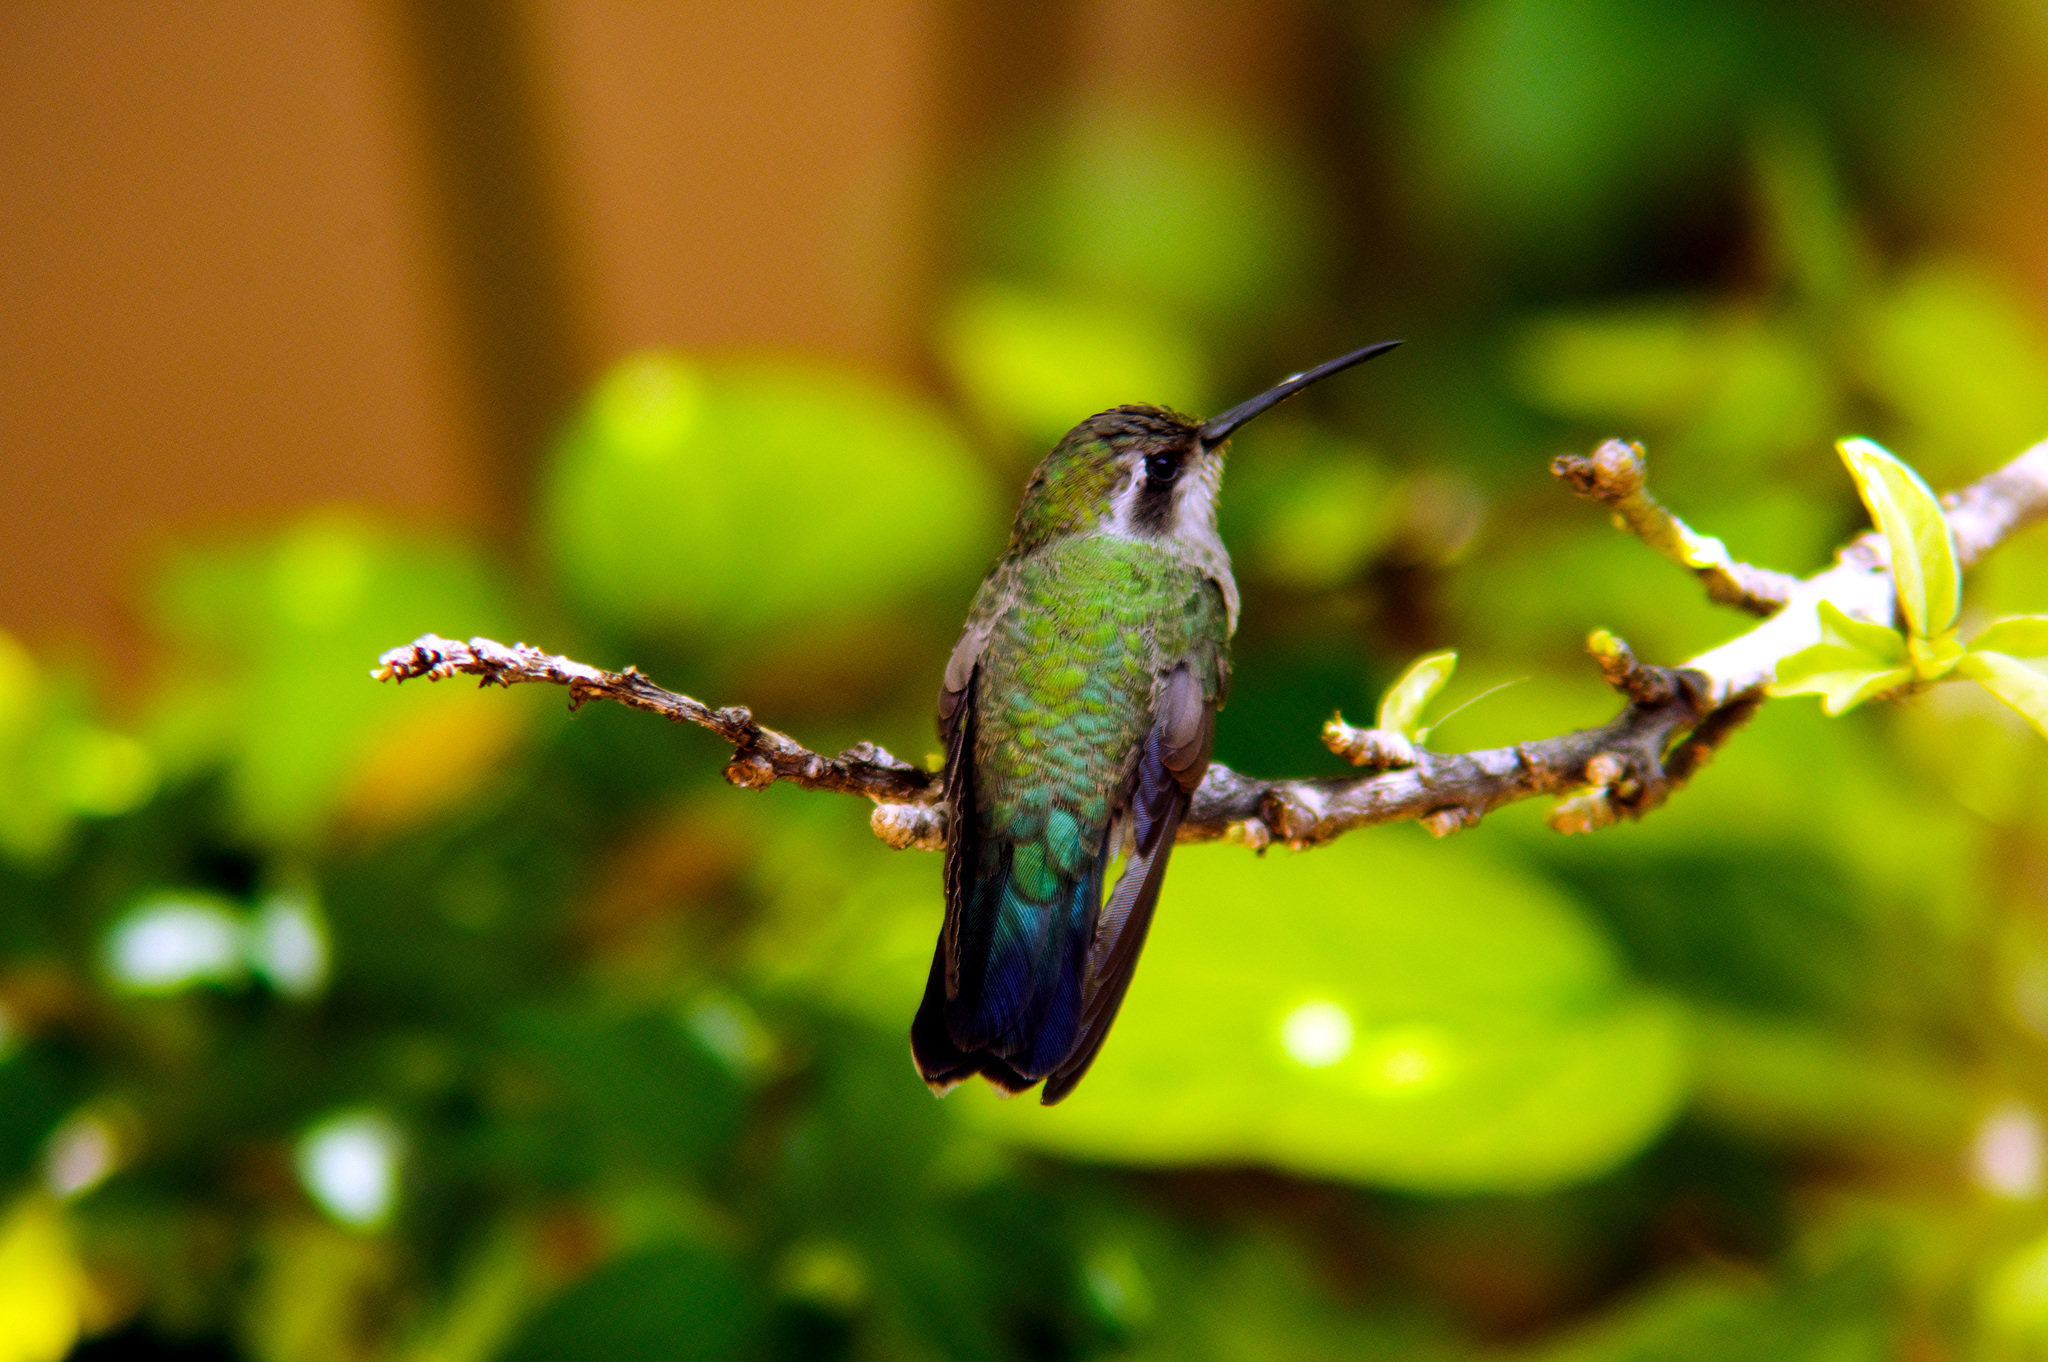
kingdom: Animalia
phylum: Chordata
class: Aves
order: Apodiformes
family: Trochilidae
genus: Cynanthus
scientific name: Cynanthus latirostris
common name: Broad-billed hummingbird
